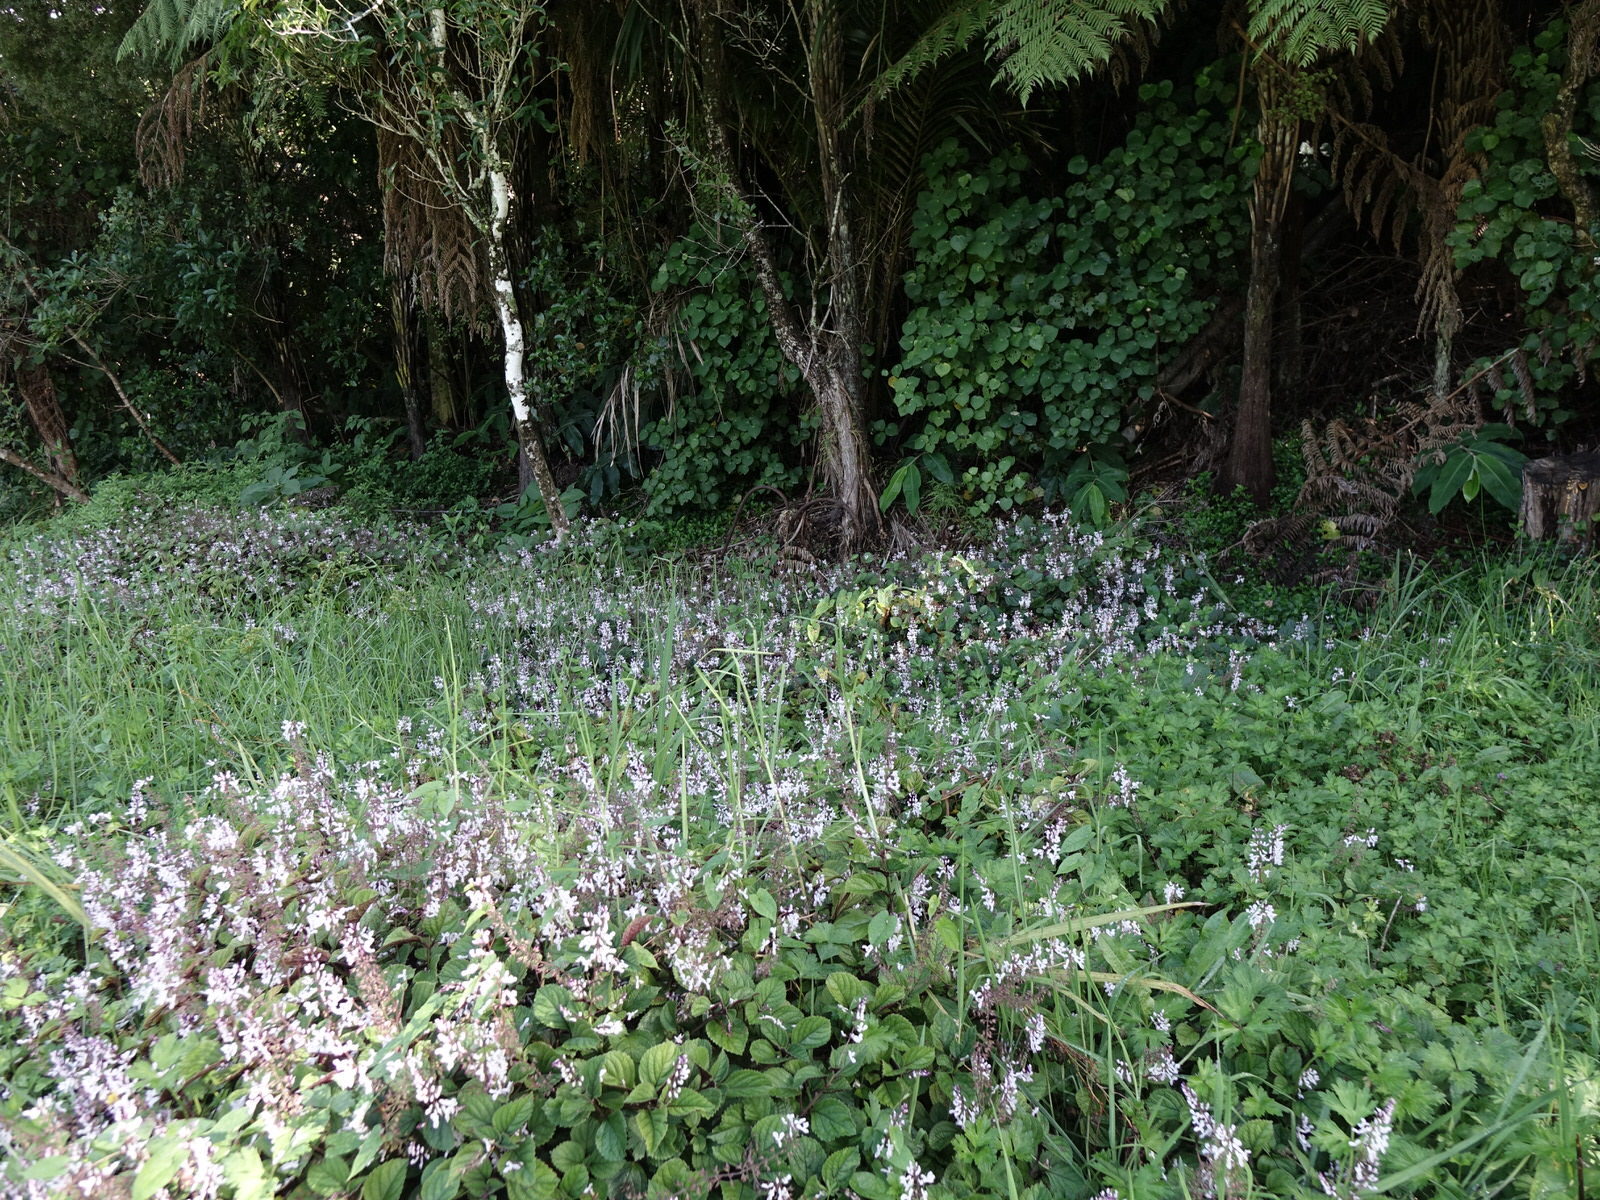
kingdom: Plantae
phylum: Tracheophyta
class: Magnoliopsida
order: Lamiales
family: Lamiaceae
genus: Plectranthus
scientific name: Plectranthus ciliatus
